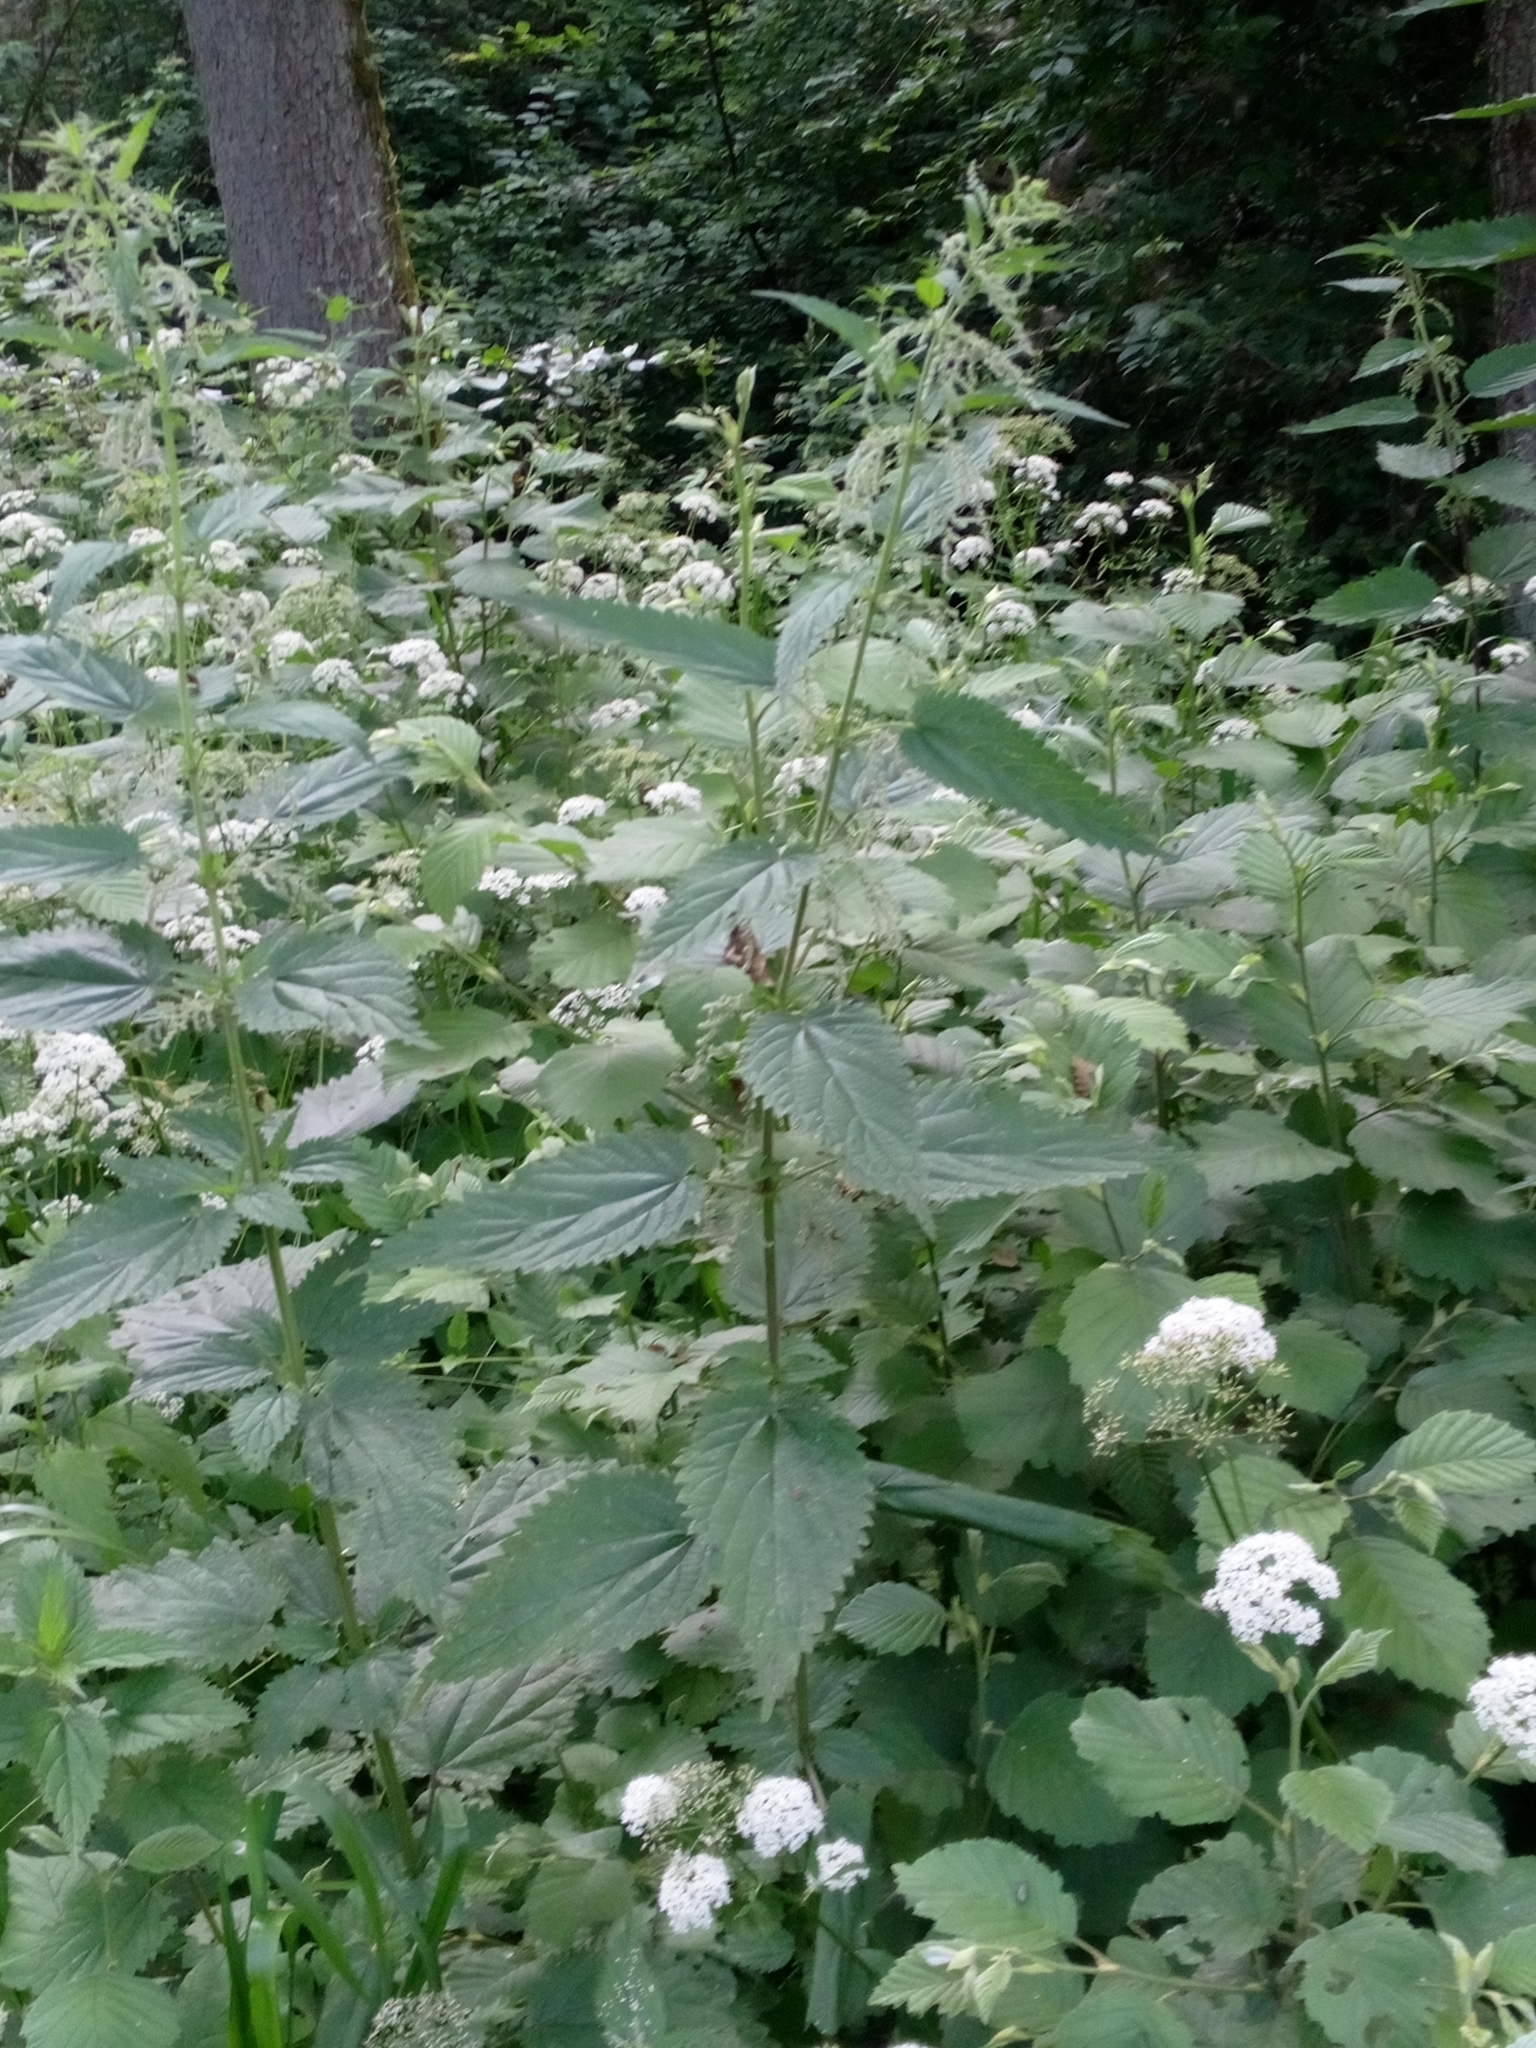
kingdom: Plantae
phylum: Tracheophyta
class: Magnoliopsida
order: Rosales
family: Urticaceae
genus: Urtica
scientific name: Urtica dioica
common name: Common nettle
